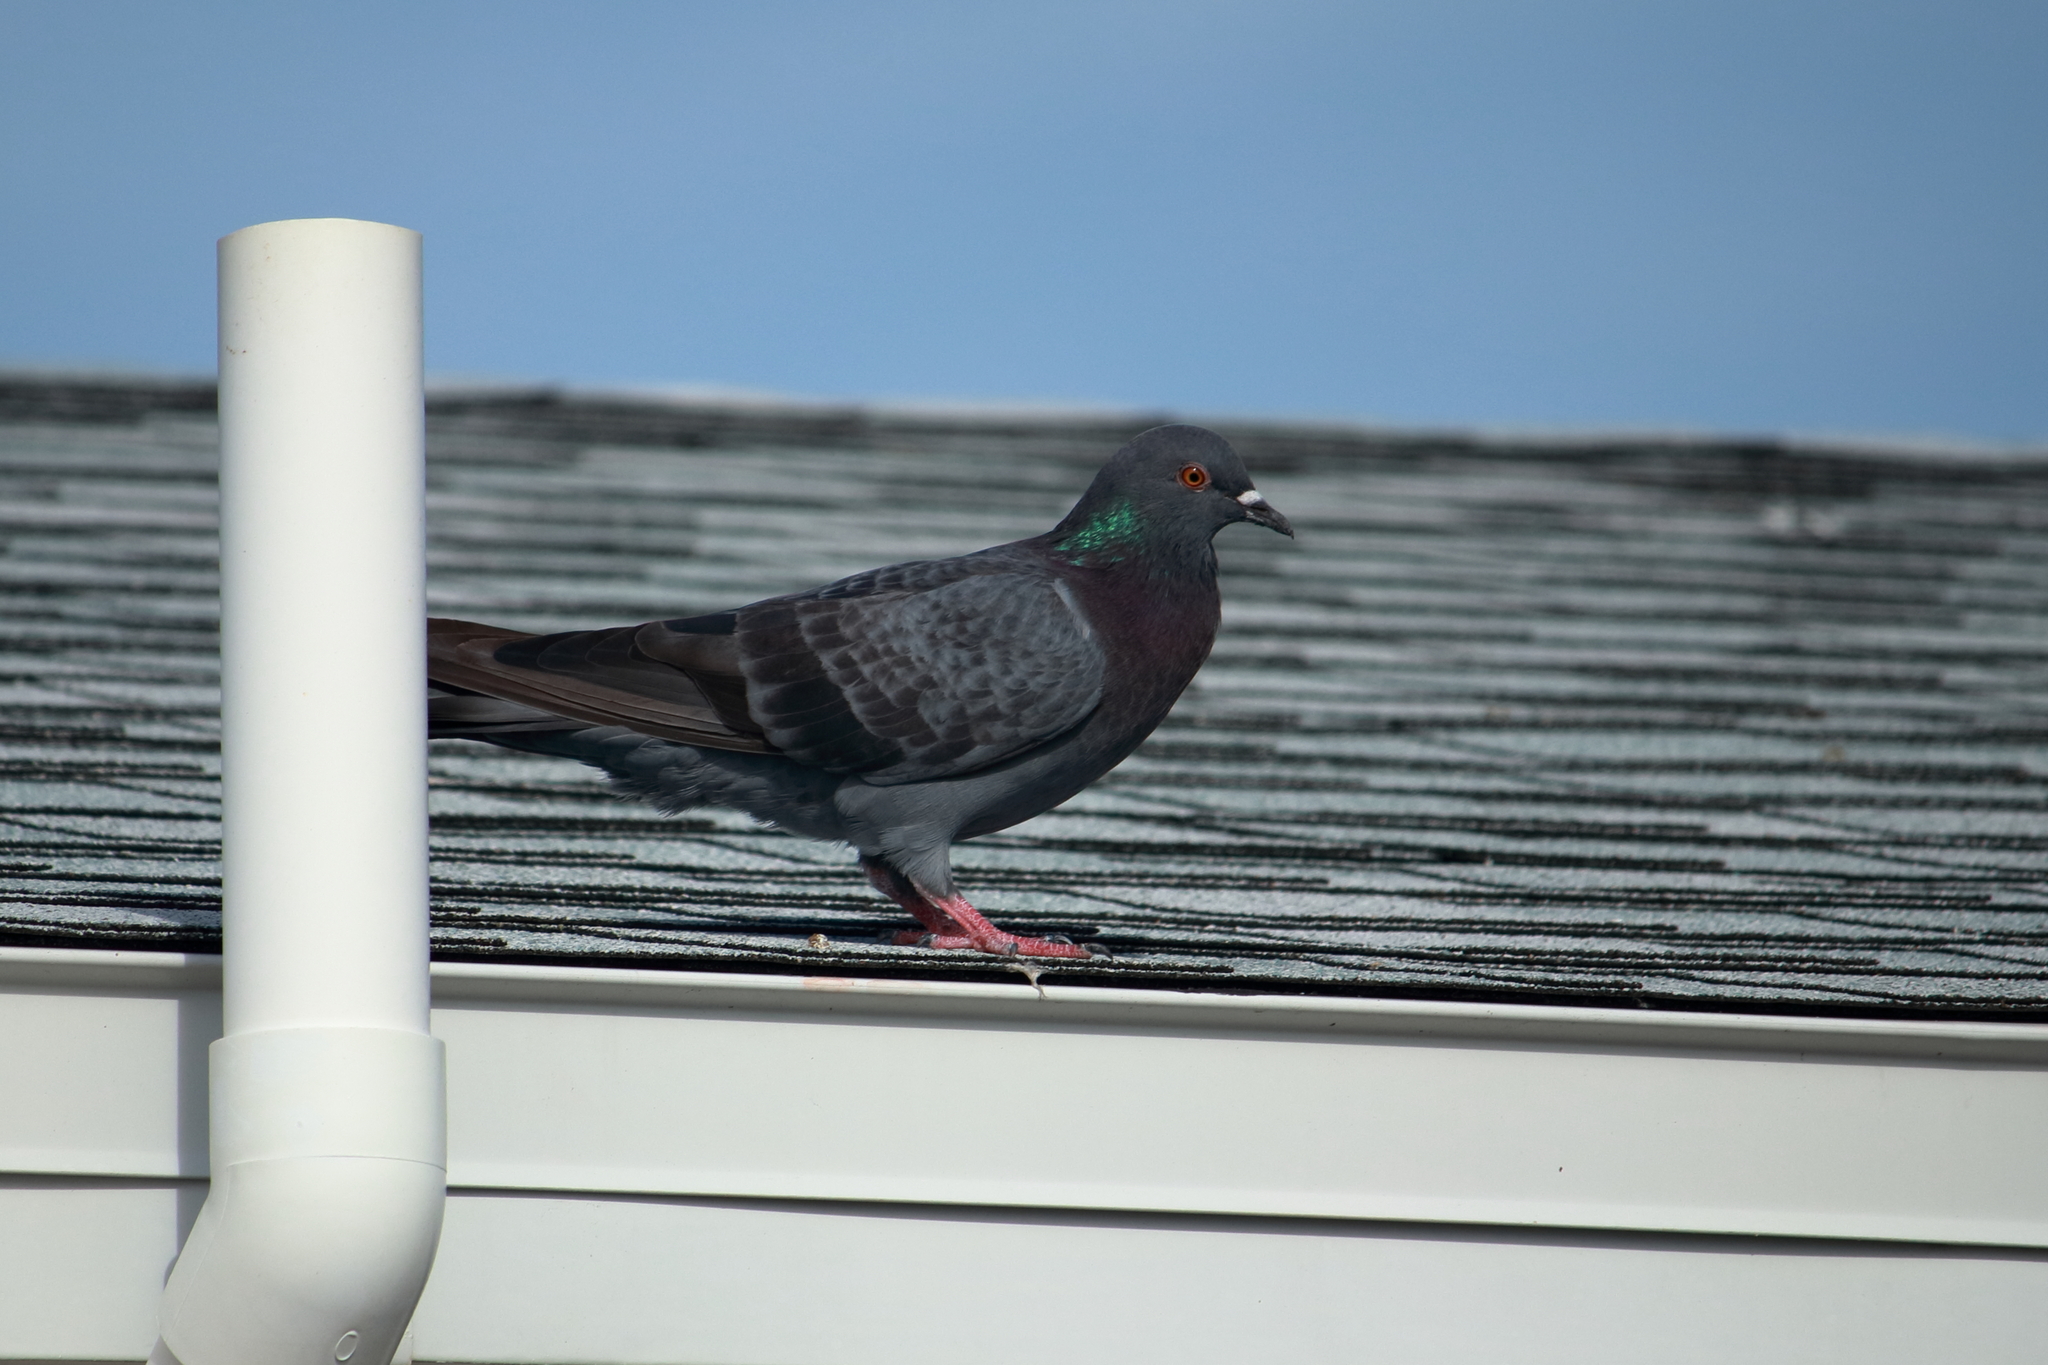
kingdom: Animalia
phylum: Chordata
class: Aves
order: Columbiformes
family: Columbidae
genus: Columba
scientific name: Columba livia
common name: Rock pigeon
